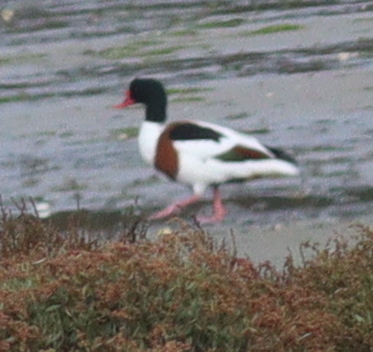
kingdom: Animalia
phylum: Chordata
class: Aves
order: Anseriformes
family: Anatidae
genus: Tadorna
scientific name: Tadorna tadorna
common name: Common shelduck
